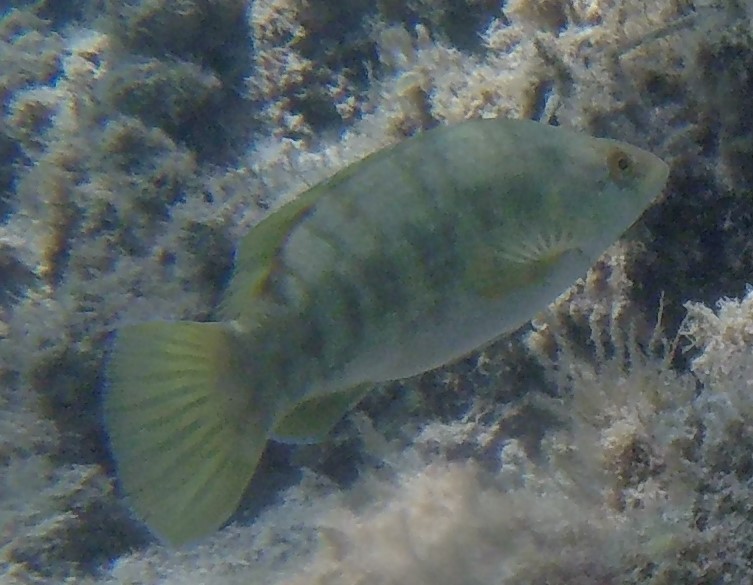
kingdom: Animalia
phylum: Chordata
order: Perciformes
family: Labridae
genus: Labrus
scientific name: Labrus merula
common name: Brown wrasse
